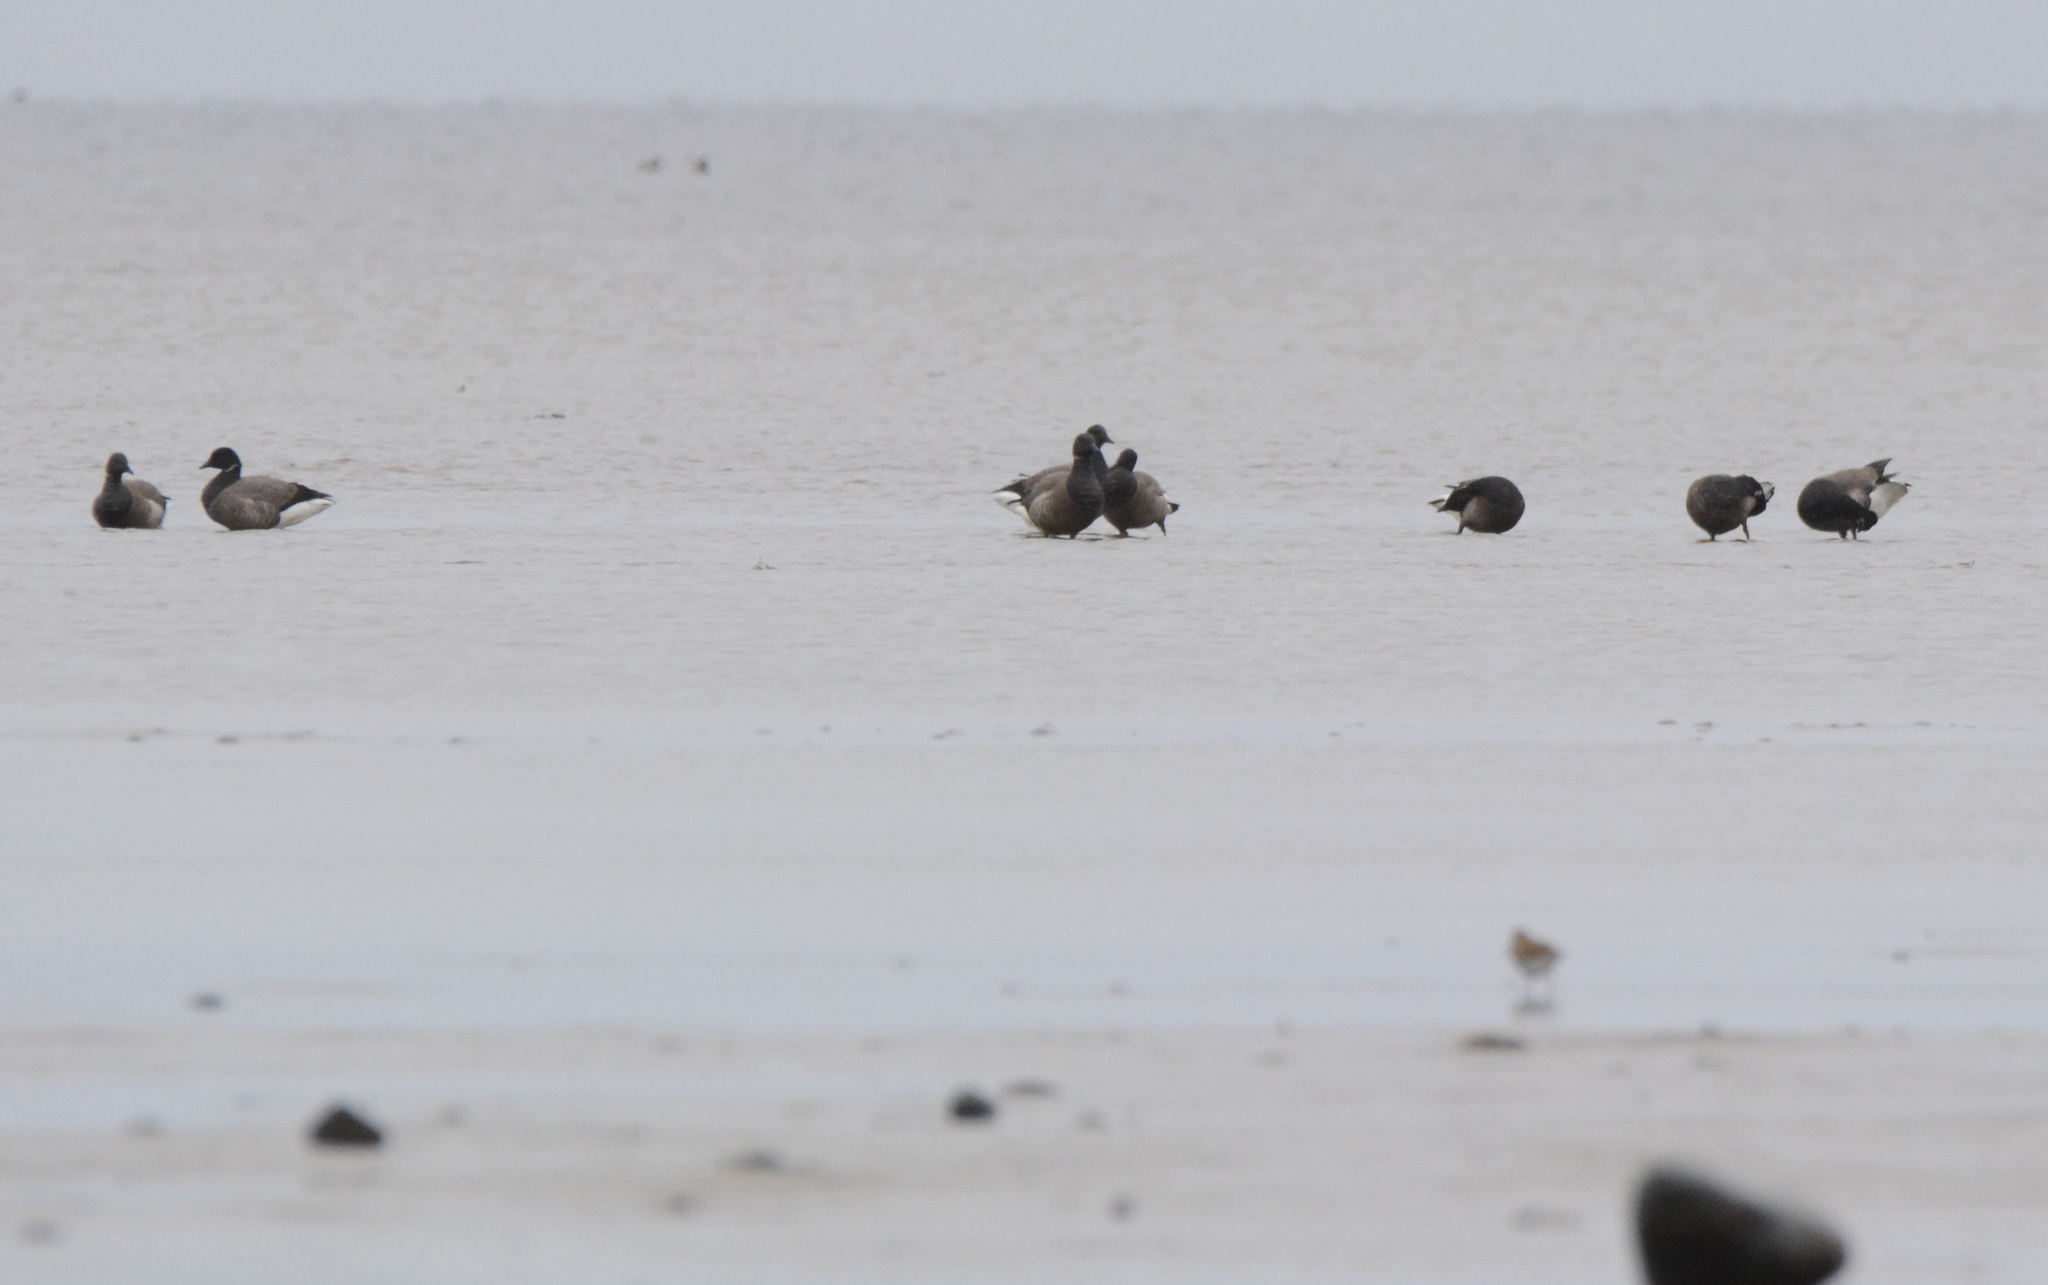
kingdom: Animalia
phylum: Chordata
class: Aves
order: Anseriformes
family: Anatidae
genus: Branta
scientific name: Branta bernicla
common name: Brant goose
